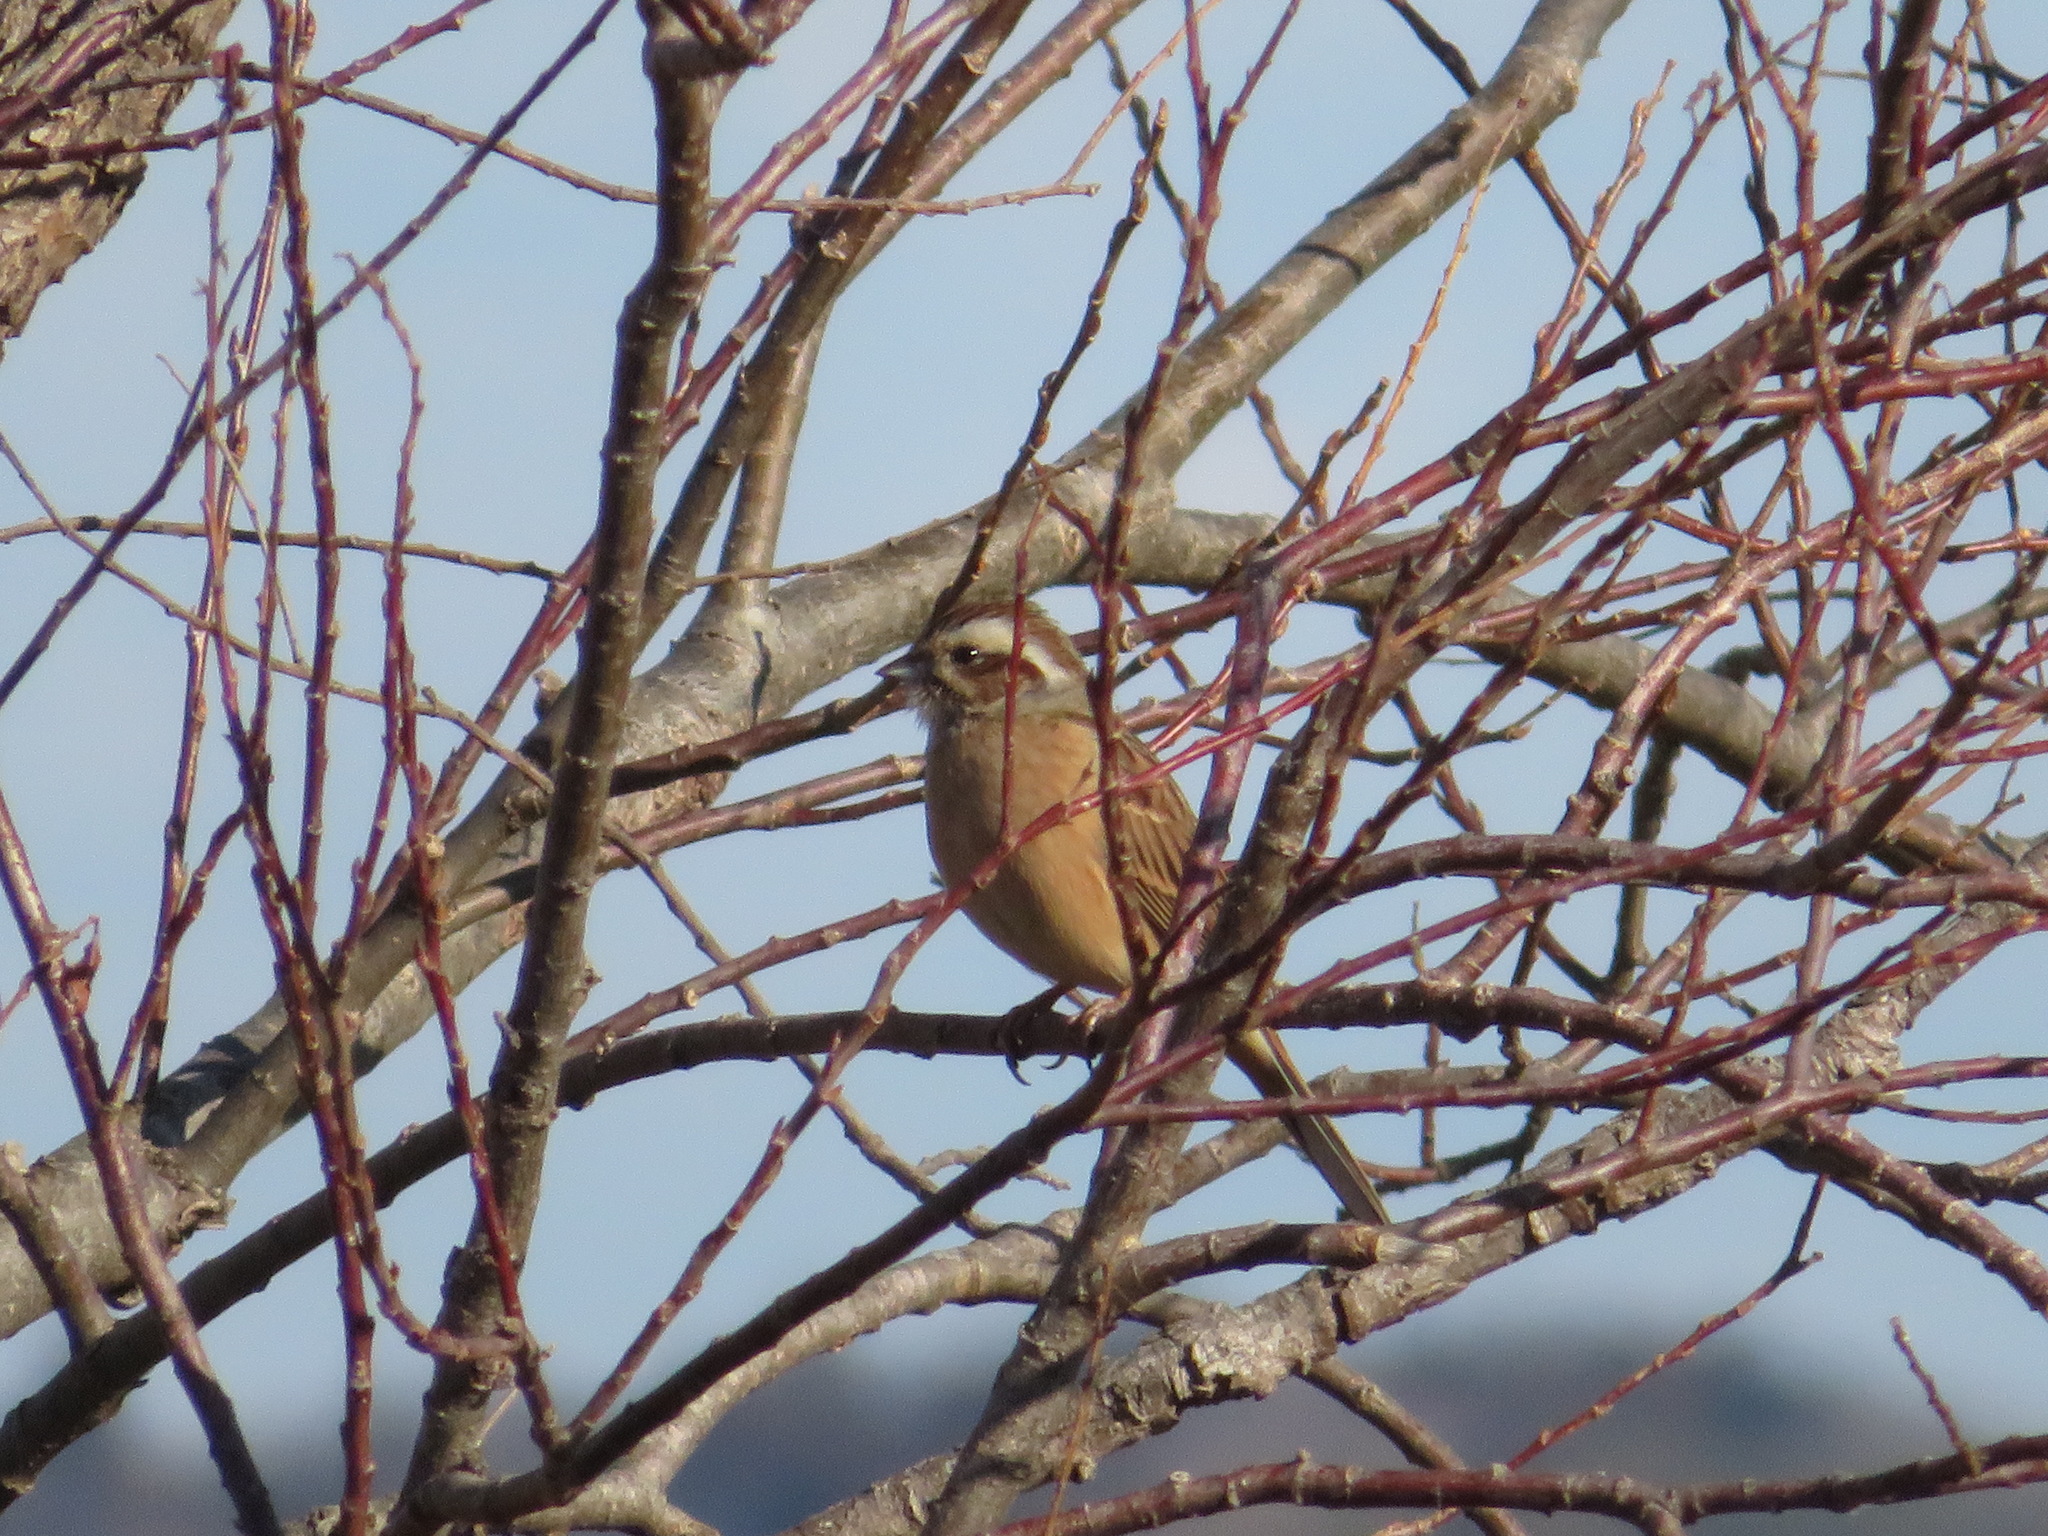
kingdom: Animalia
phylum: Chordata
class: Aves
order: Passeriformes
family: Emberizidae
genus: Emberiza
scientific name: Emberiza cioides
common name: Meadow bunting
